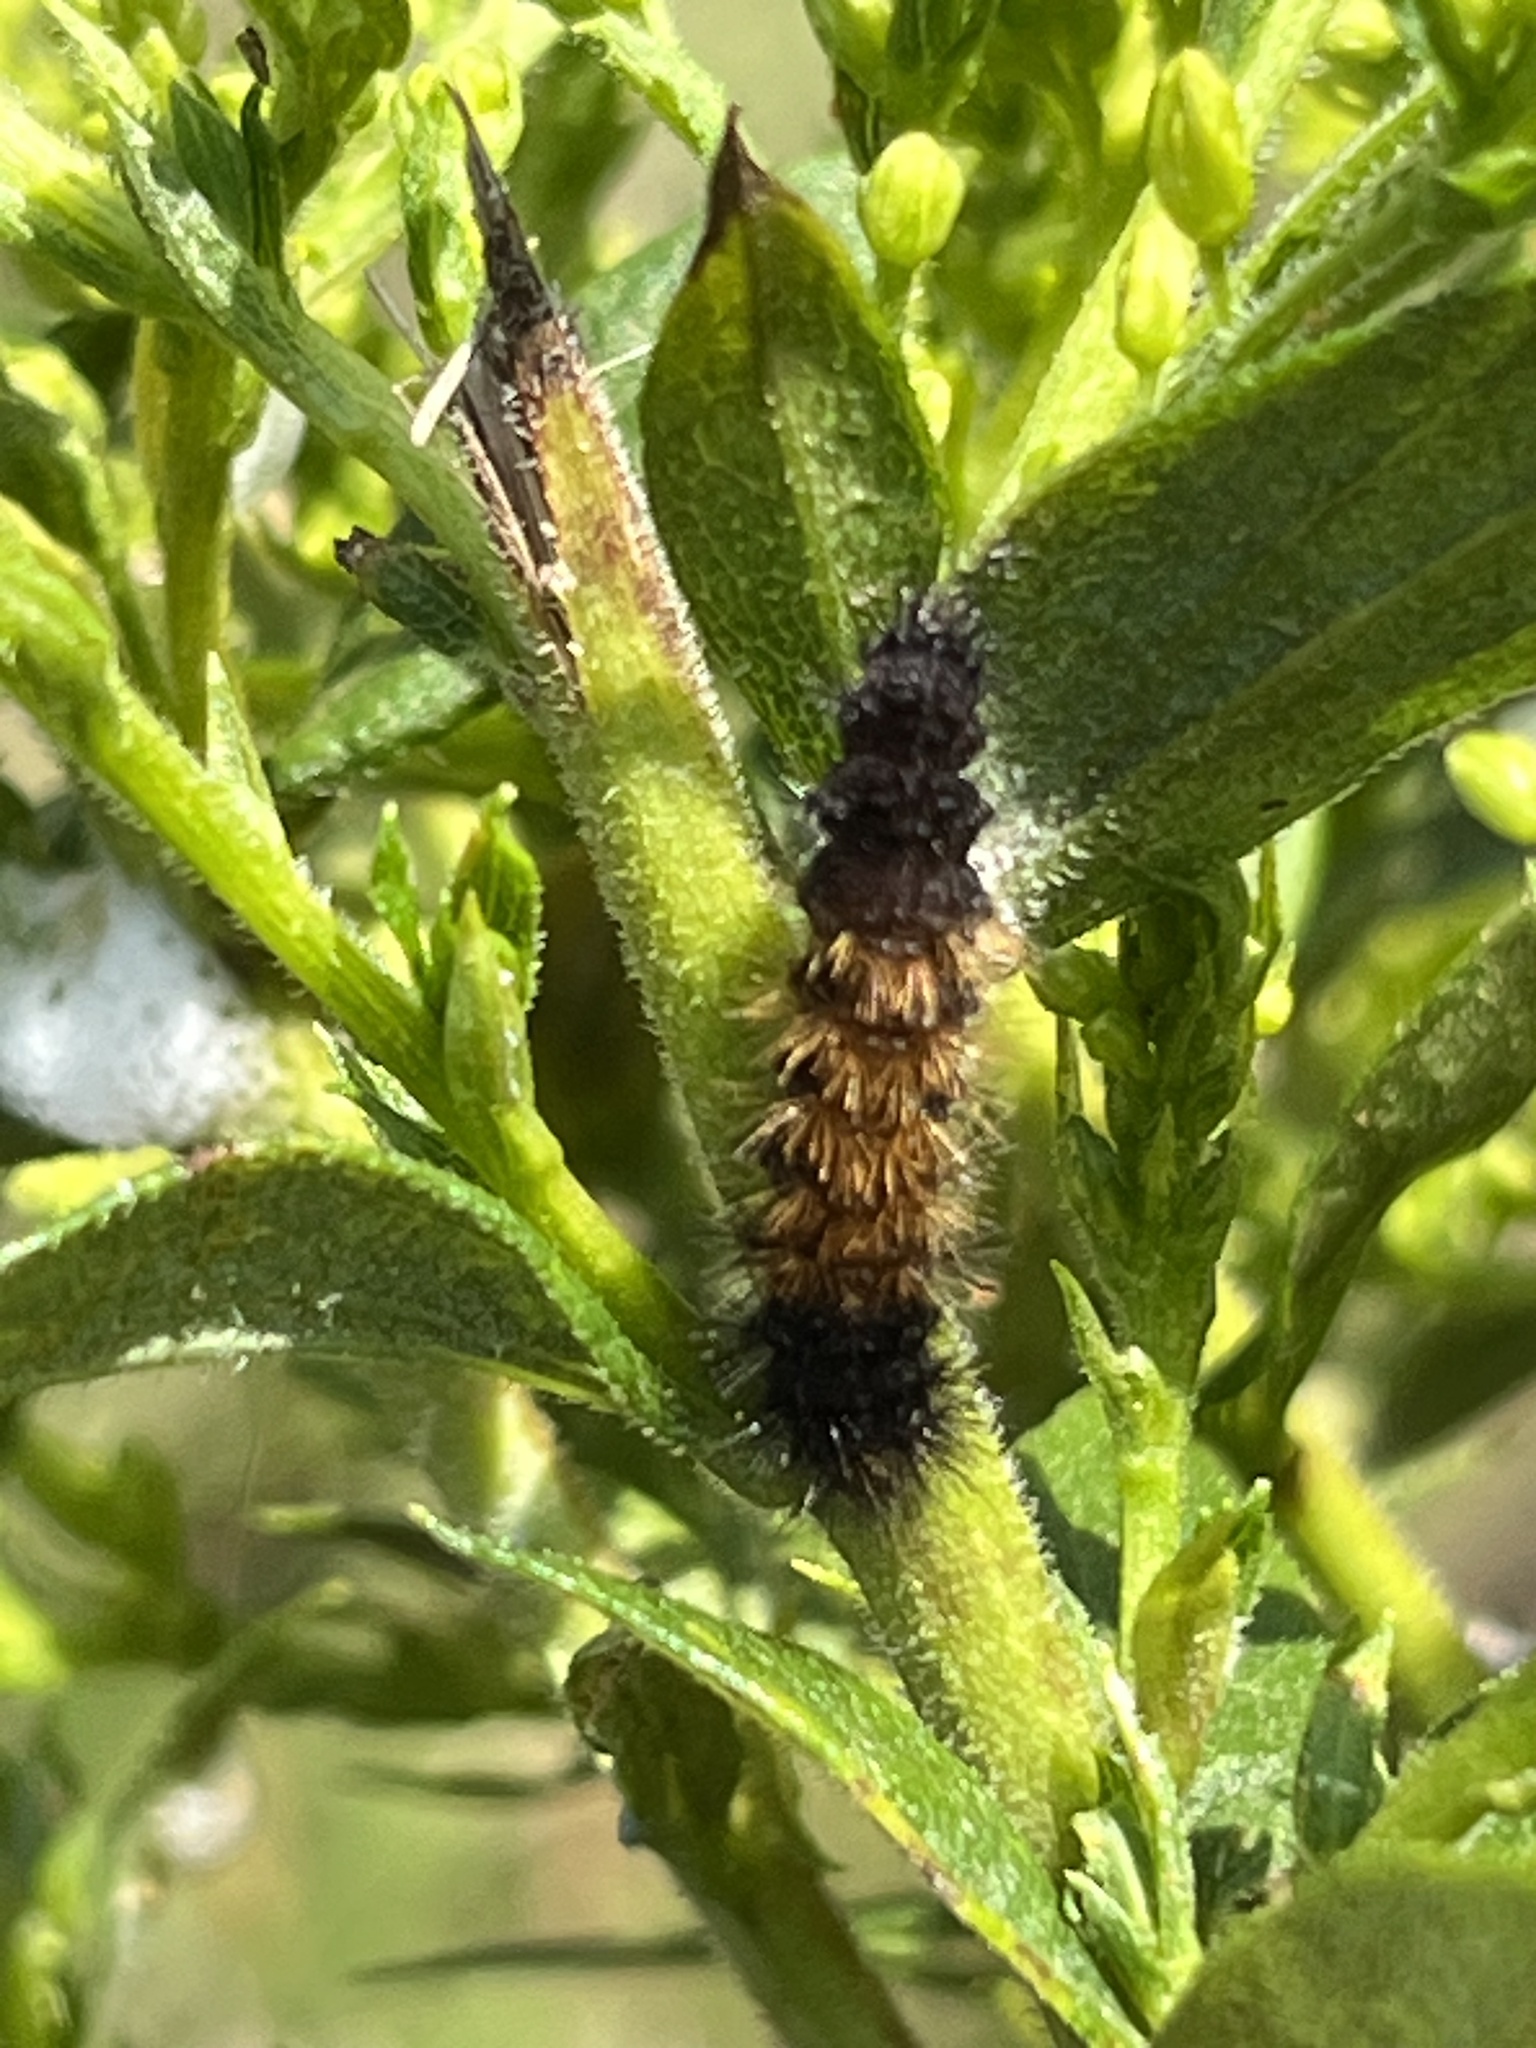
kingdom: Animalia
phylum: Arthropoda
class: Insecta
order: Lepidoptera
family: Erebidae
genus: Pyrrharctia
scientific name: Pyrrharctia isabella
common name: Isabella tiger moth
